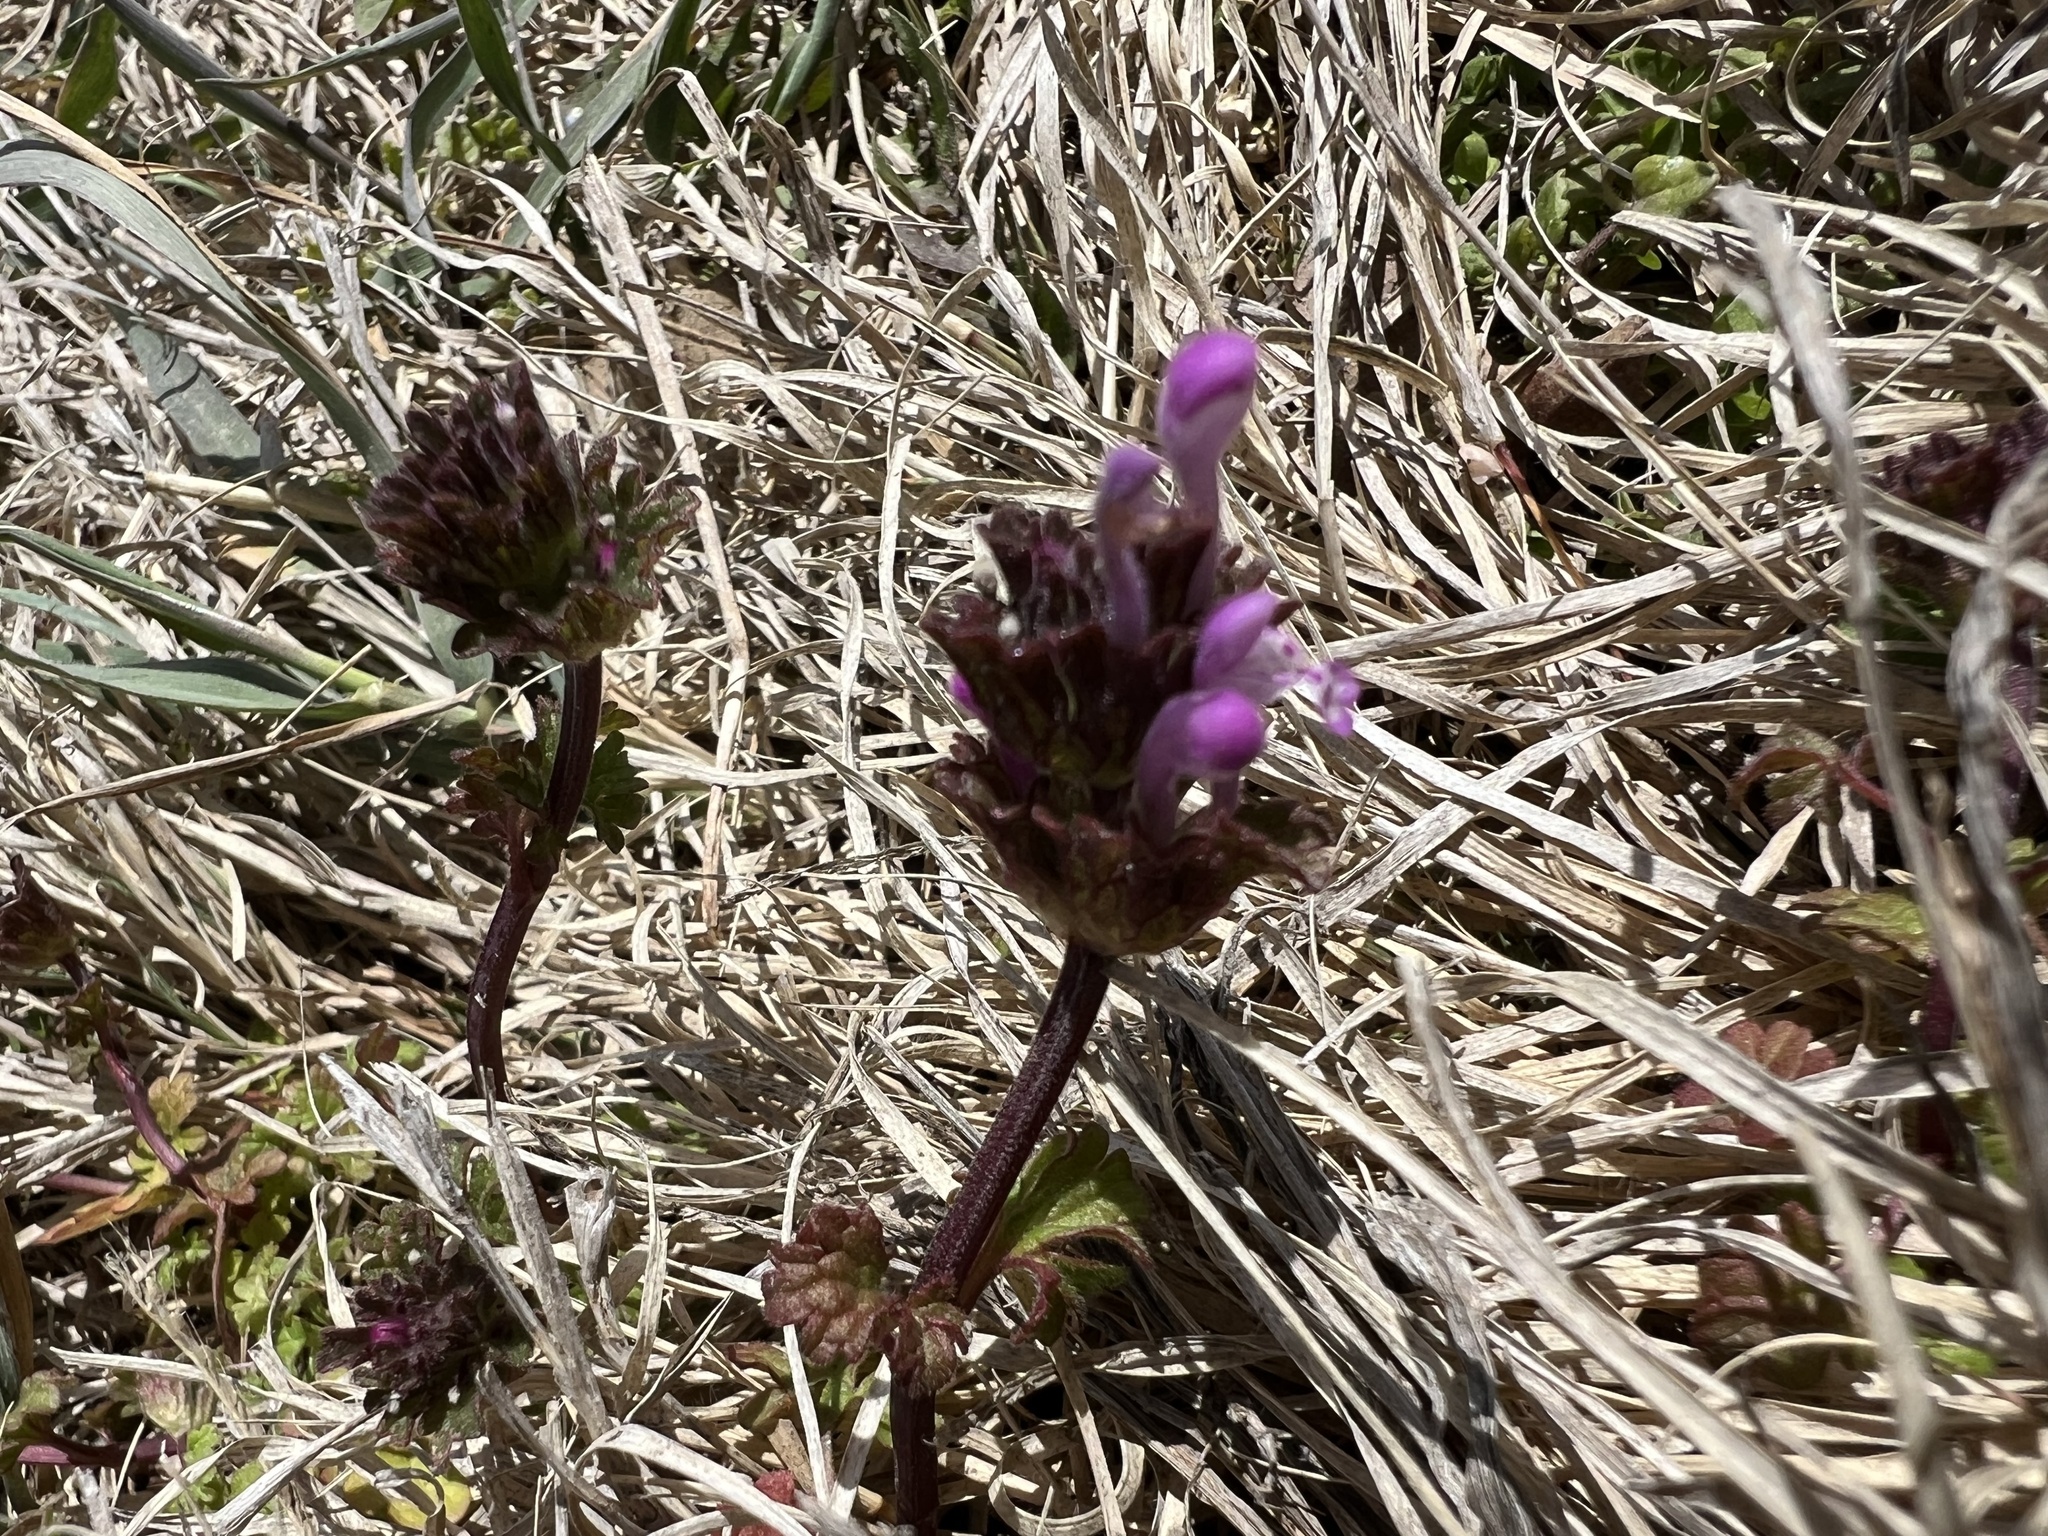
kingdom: Plantae
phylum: Tracheophyta
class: Magnoliopsida
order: Lamiales
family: Lamiaceae
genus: Lamium
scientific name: Lamium amplexicaule
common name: Henbit dead-nettle
